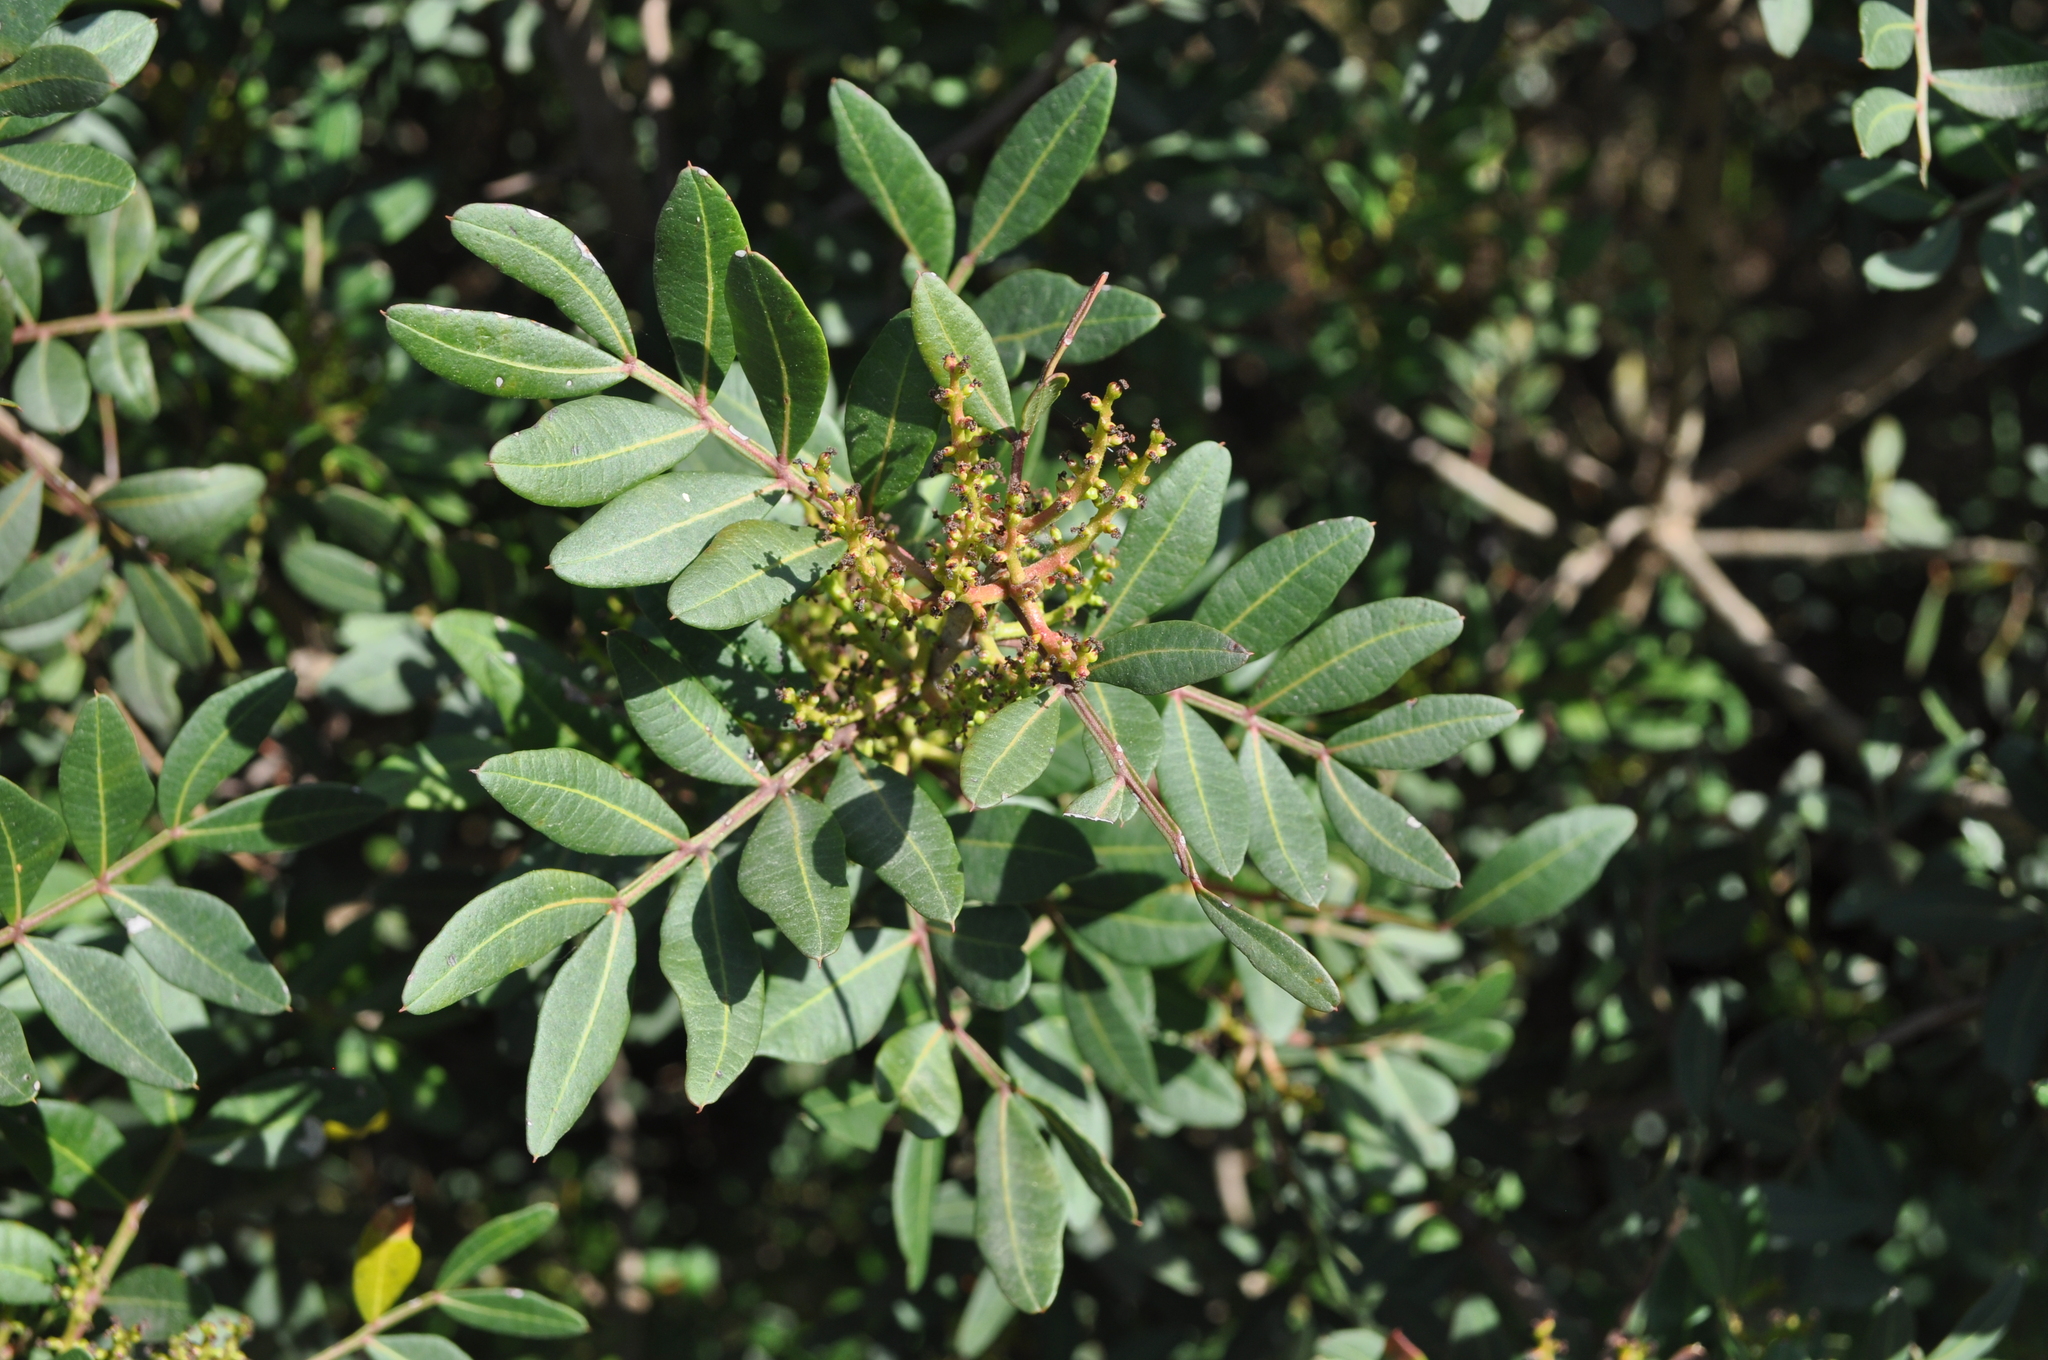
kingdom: Plantae
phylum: Tracheophyta
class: Magnoliopsida
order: Sapindales
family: Anacardiaceae
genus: Pistacia
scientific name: Pistacia lentiscus
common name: Lentisk
